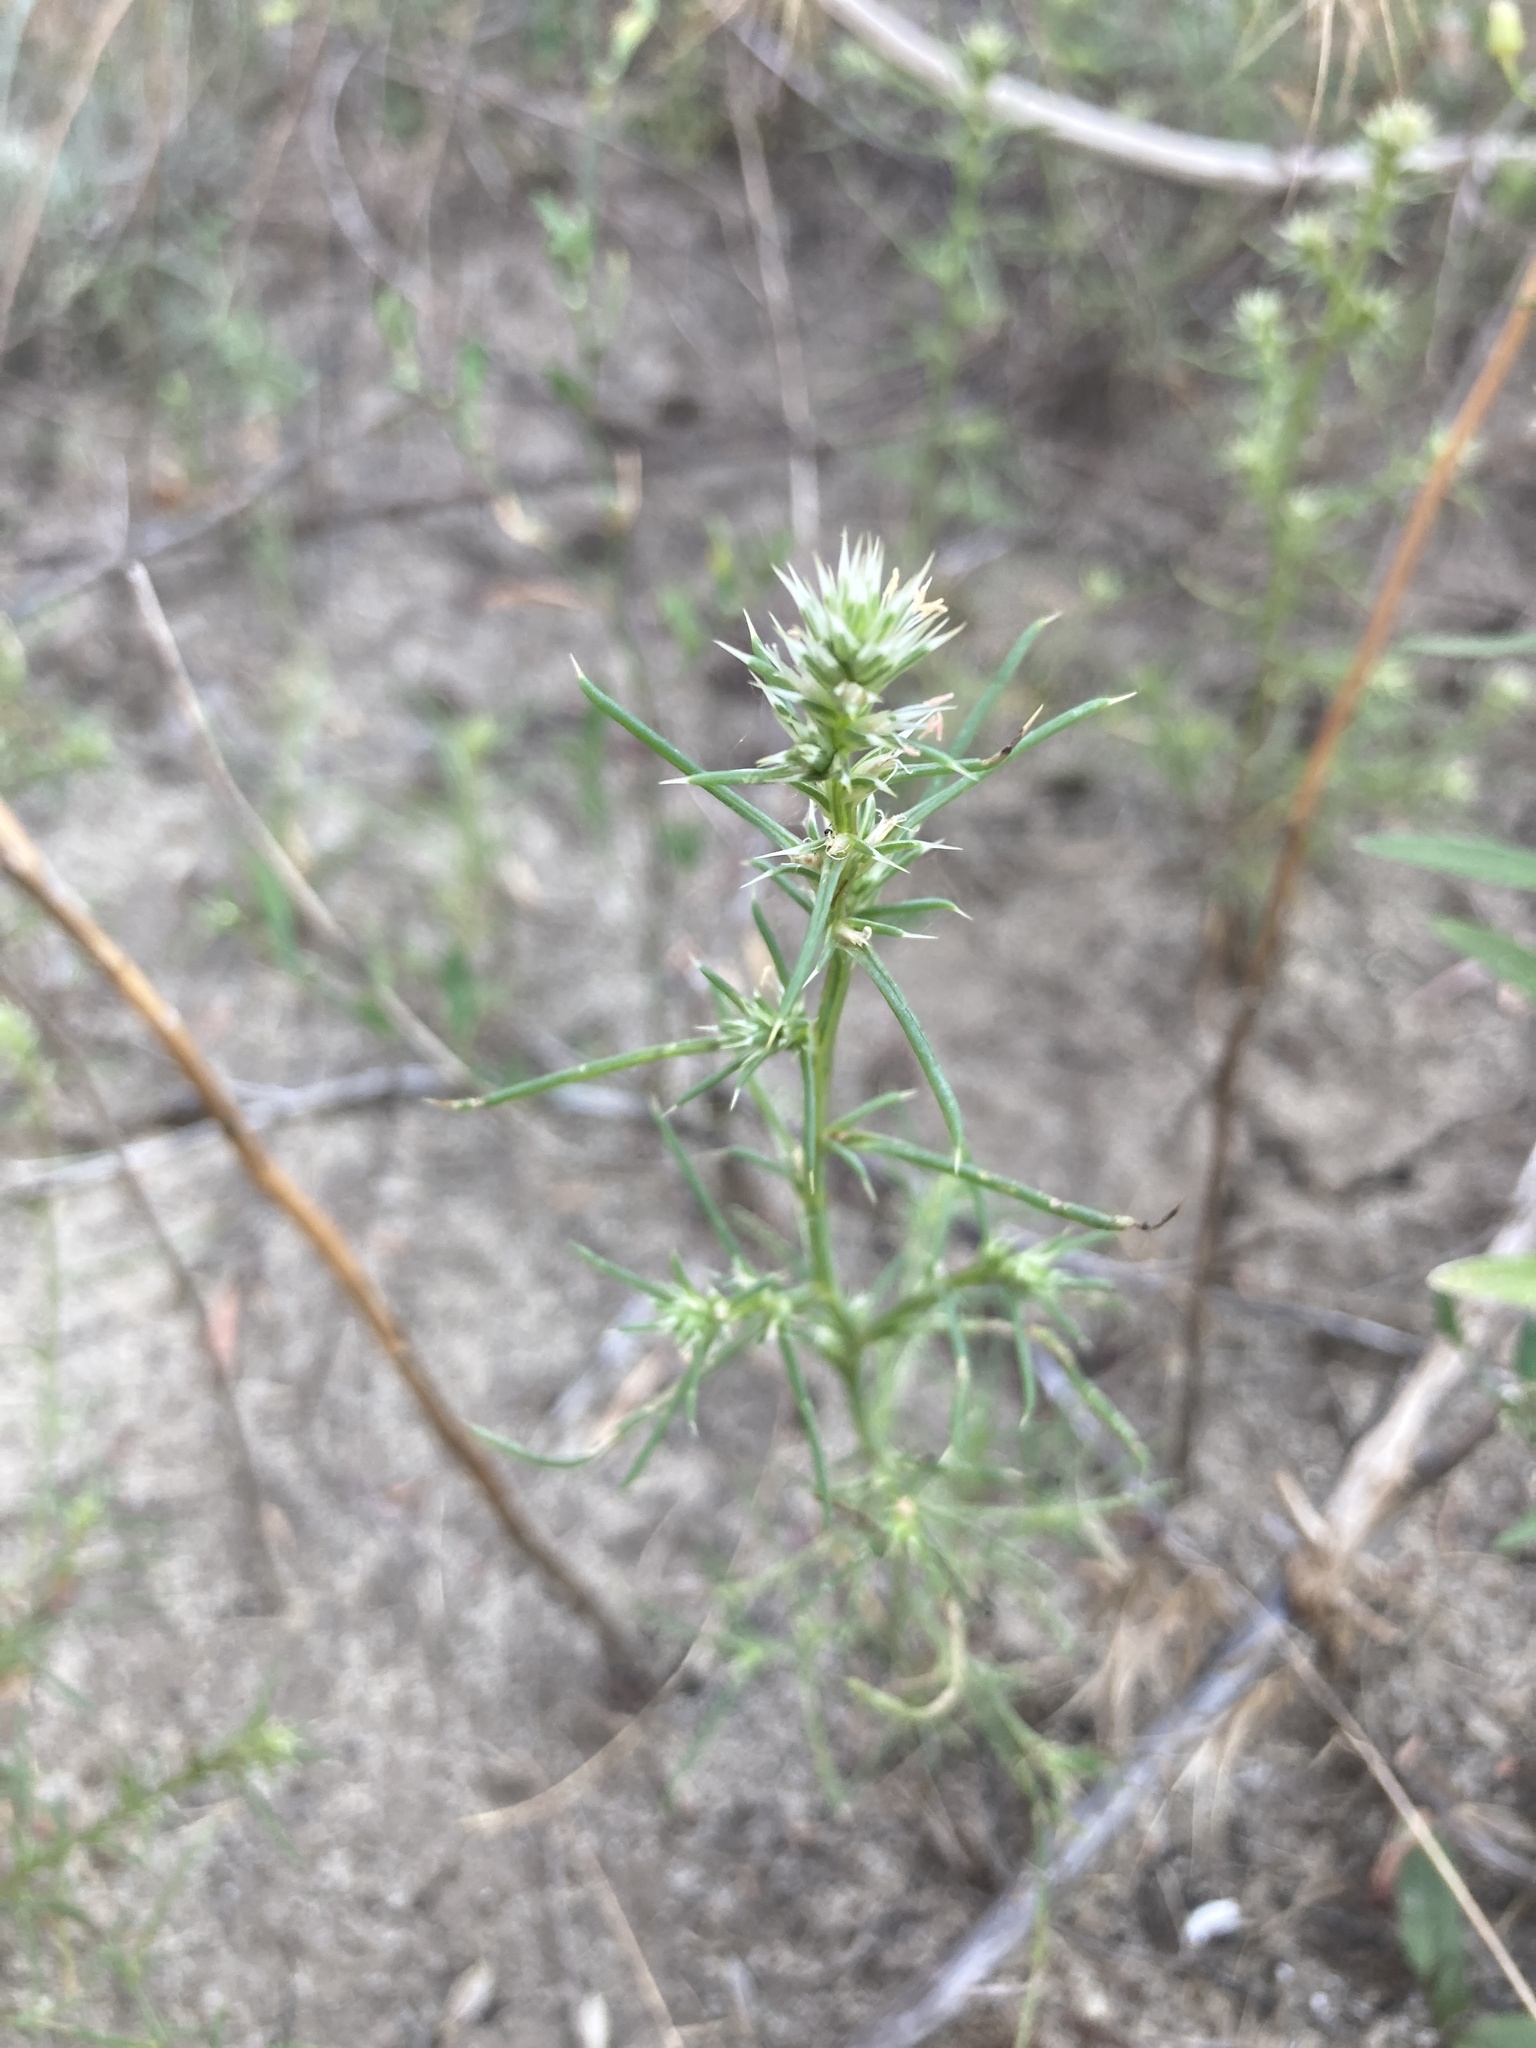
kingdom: Plantae
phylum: Tracheophyta
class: Magnoliopsida
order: Caryophyllales
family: Amaranthaceae
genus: Salsola
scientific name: Salsola tragus
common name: Prickly russian thistle
